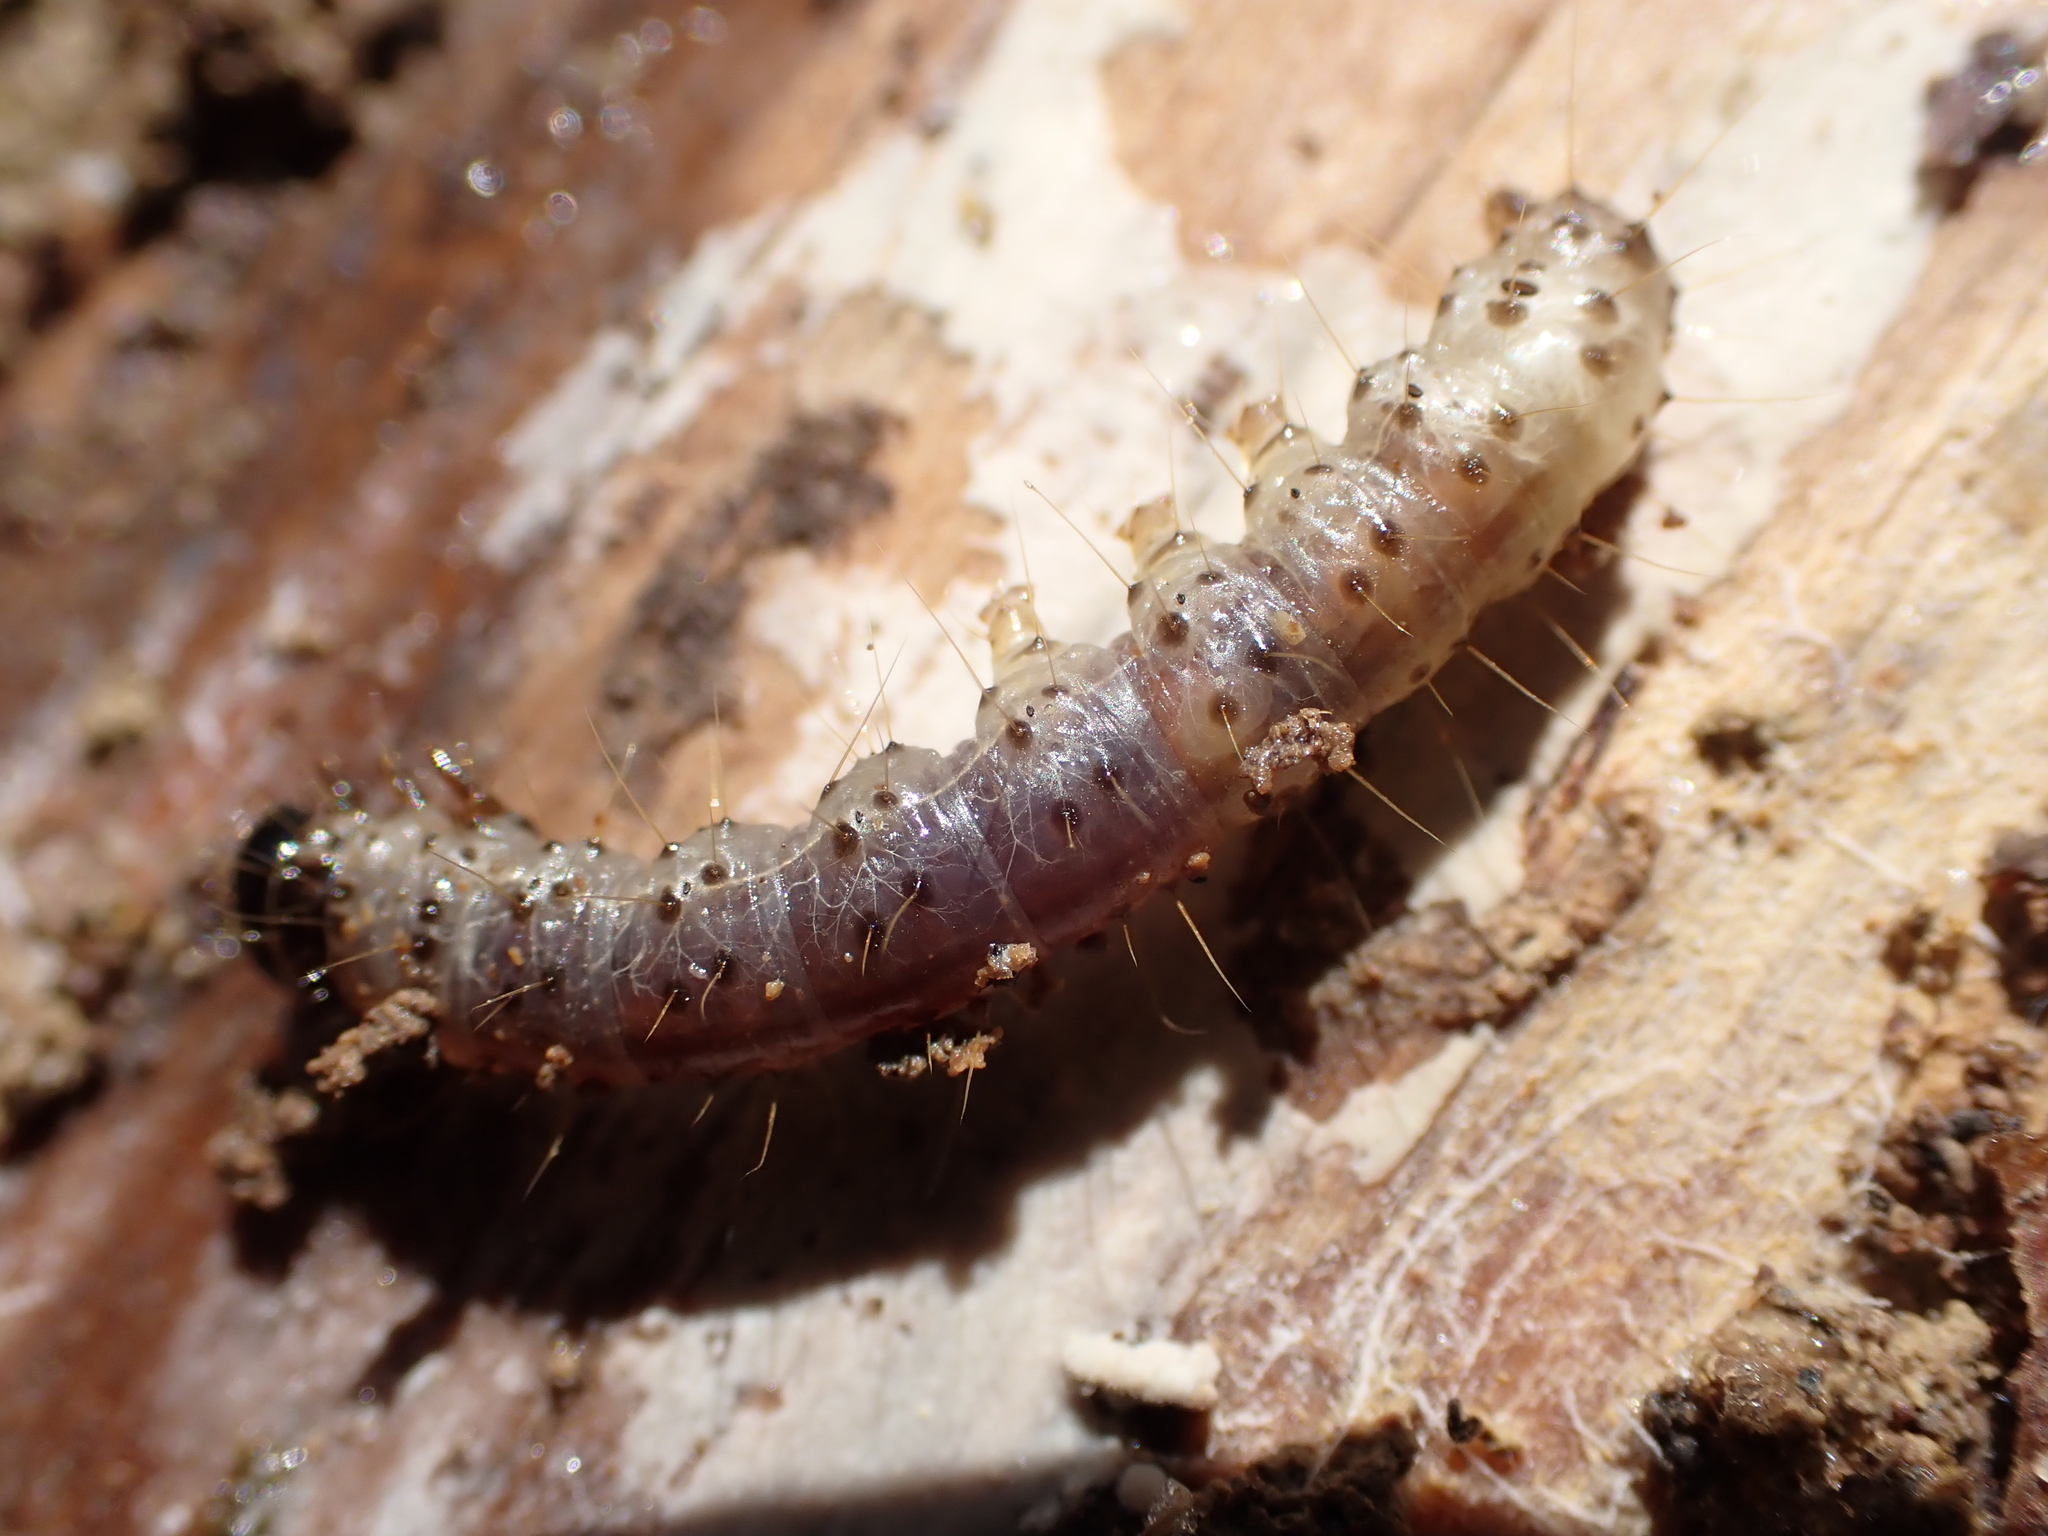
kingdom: Animalia
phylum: Arthropoda
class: Insecta
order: Lepidoptera
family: Erebidae
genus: Scolecocampa
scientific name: Scolecocampa liburna
